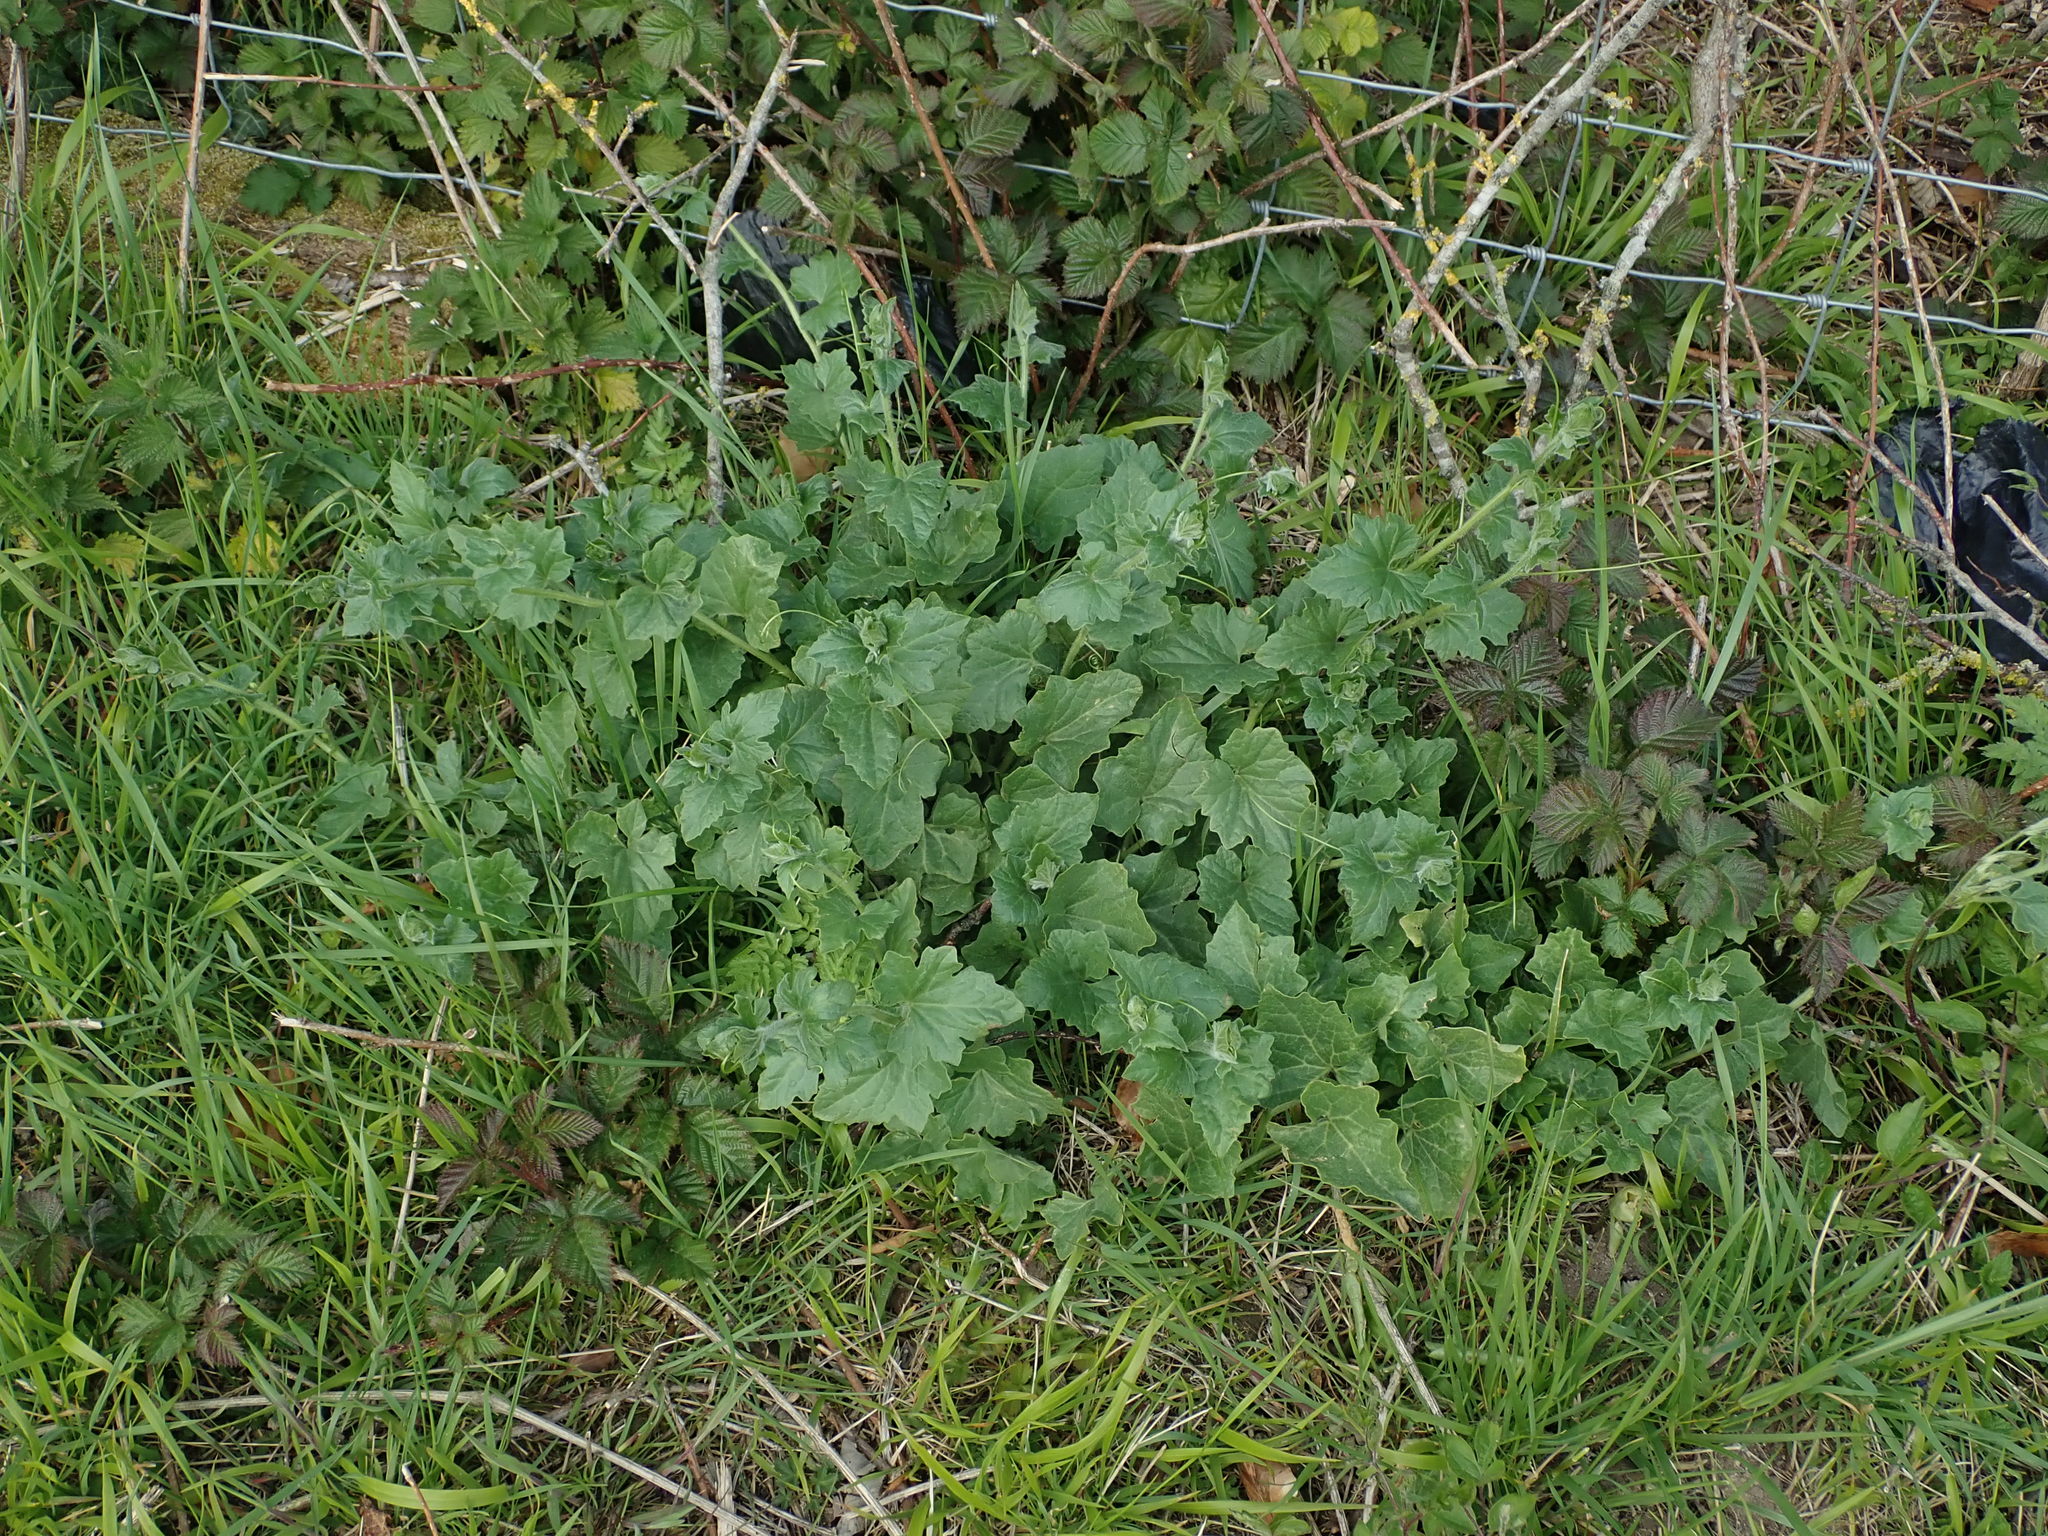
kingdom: Plantae
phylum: Tracheophyta
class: Magnoliopsida
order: Cucurbitales
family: Cucurbitaceae
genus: Bryonia
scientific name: Bryonia cretica
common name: Cretan bryony
